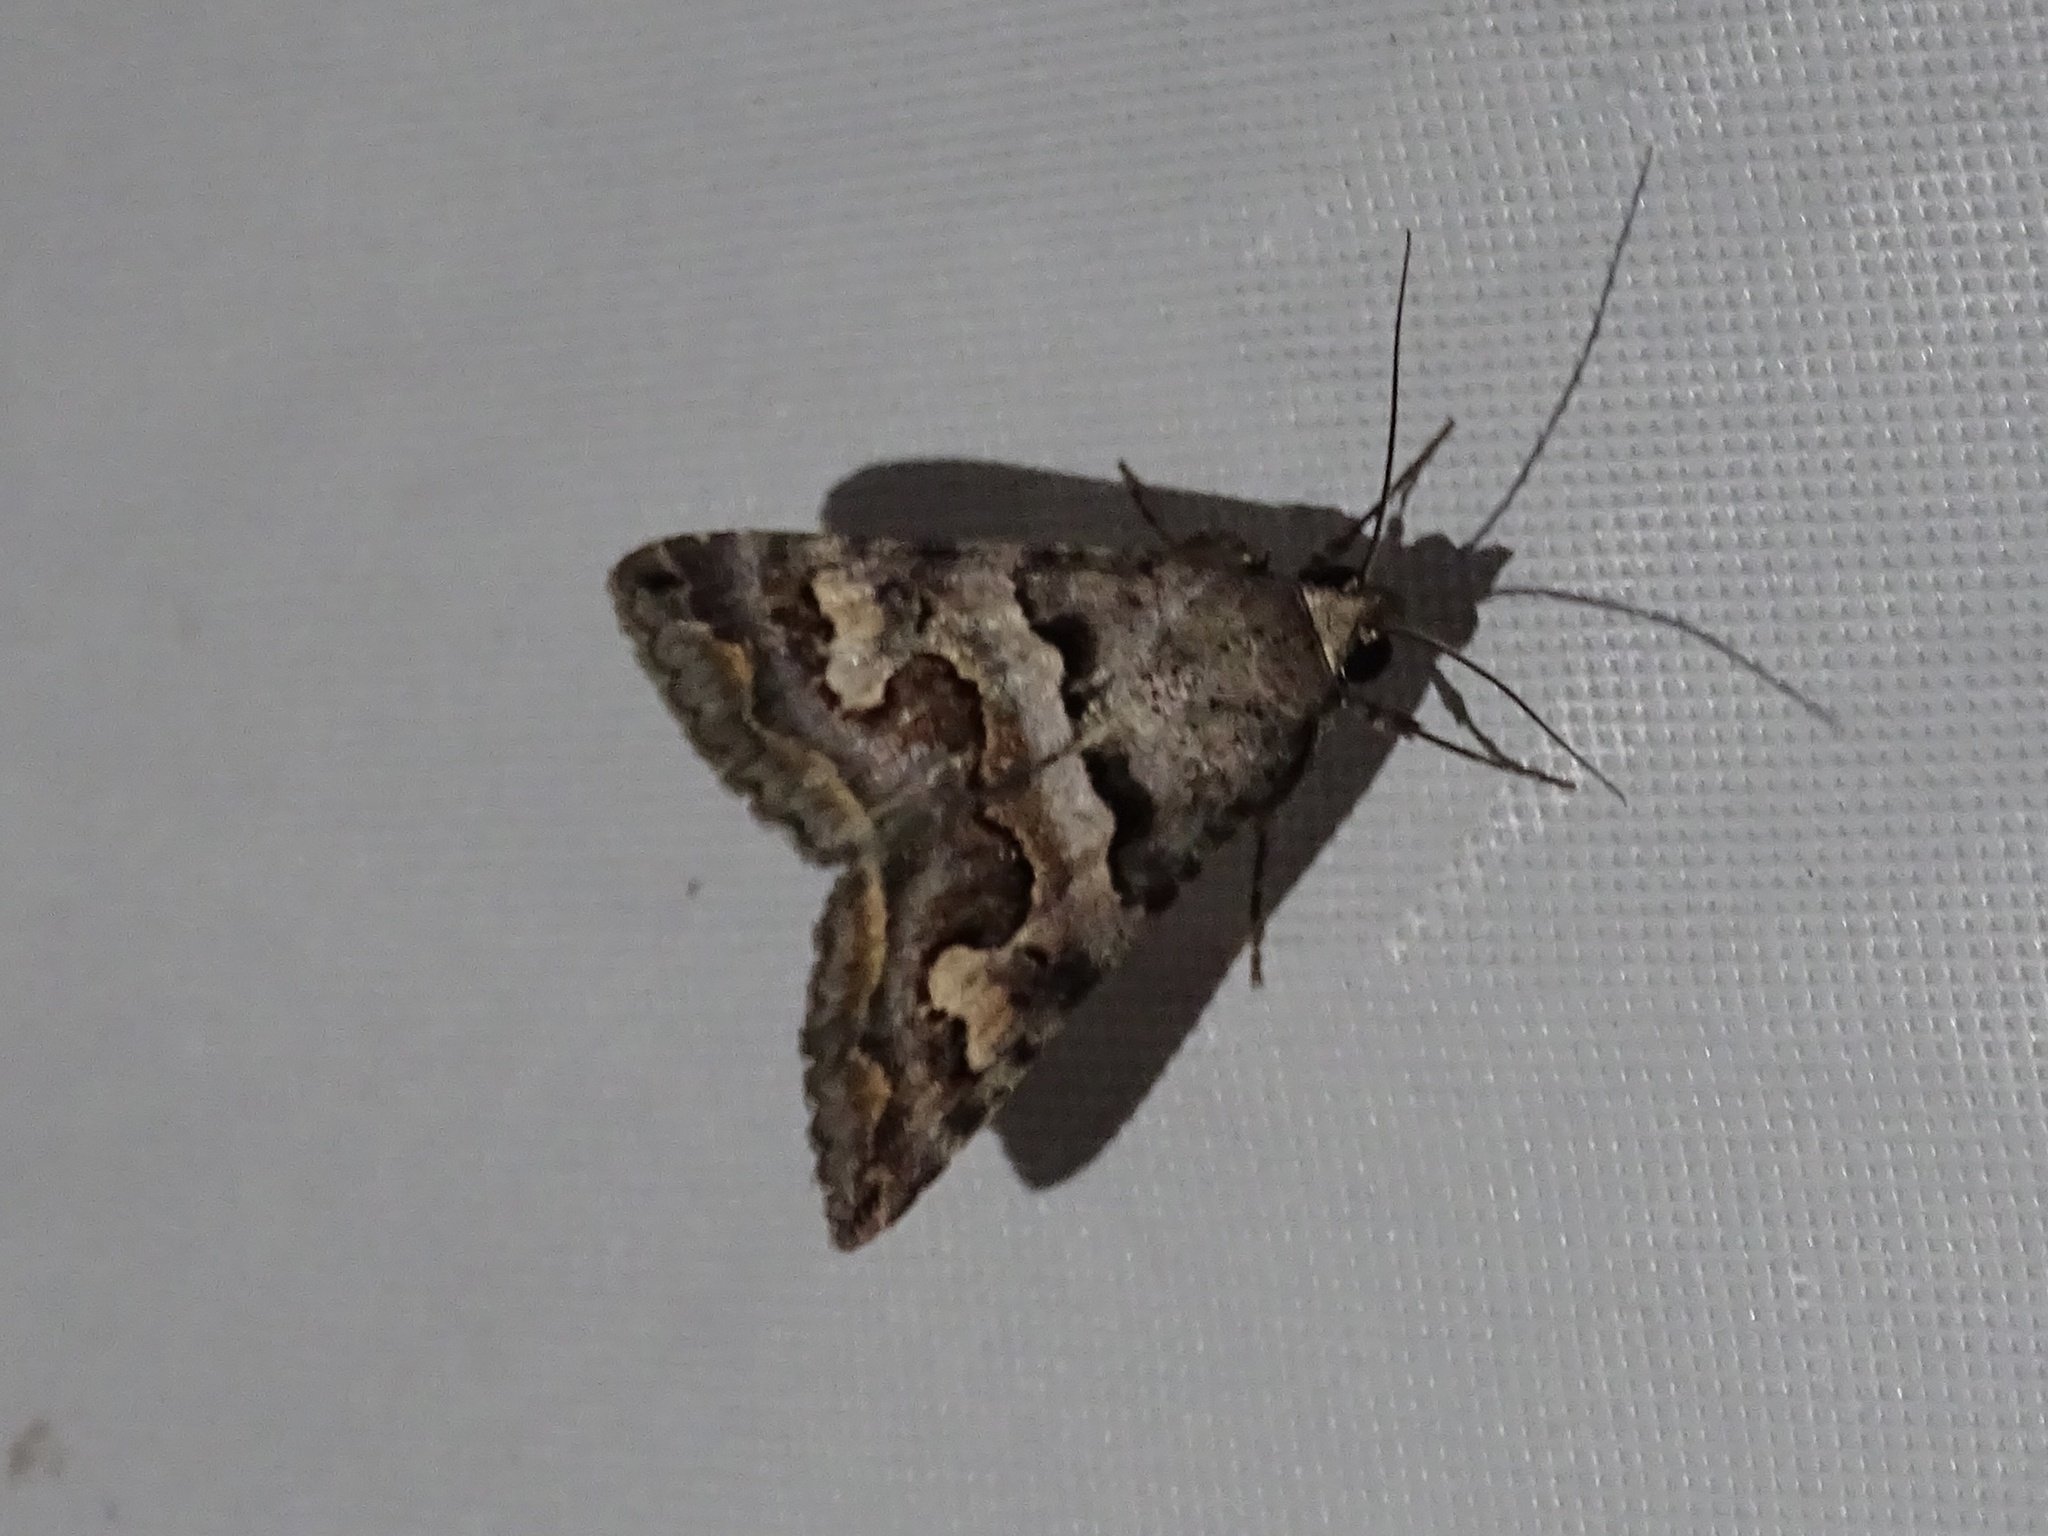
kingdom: Animalia
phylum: Arthropoda
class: Insecta
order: Lepidoptera
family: Erebidae
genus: Bulia
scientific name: Bulia deducta
